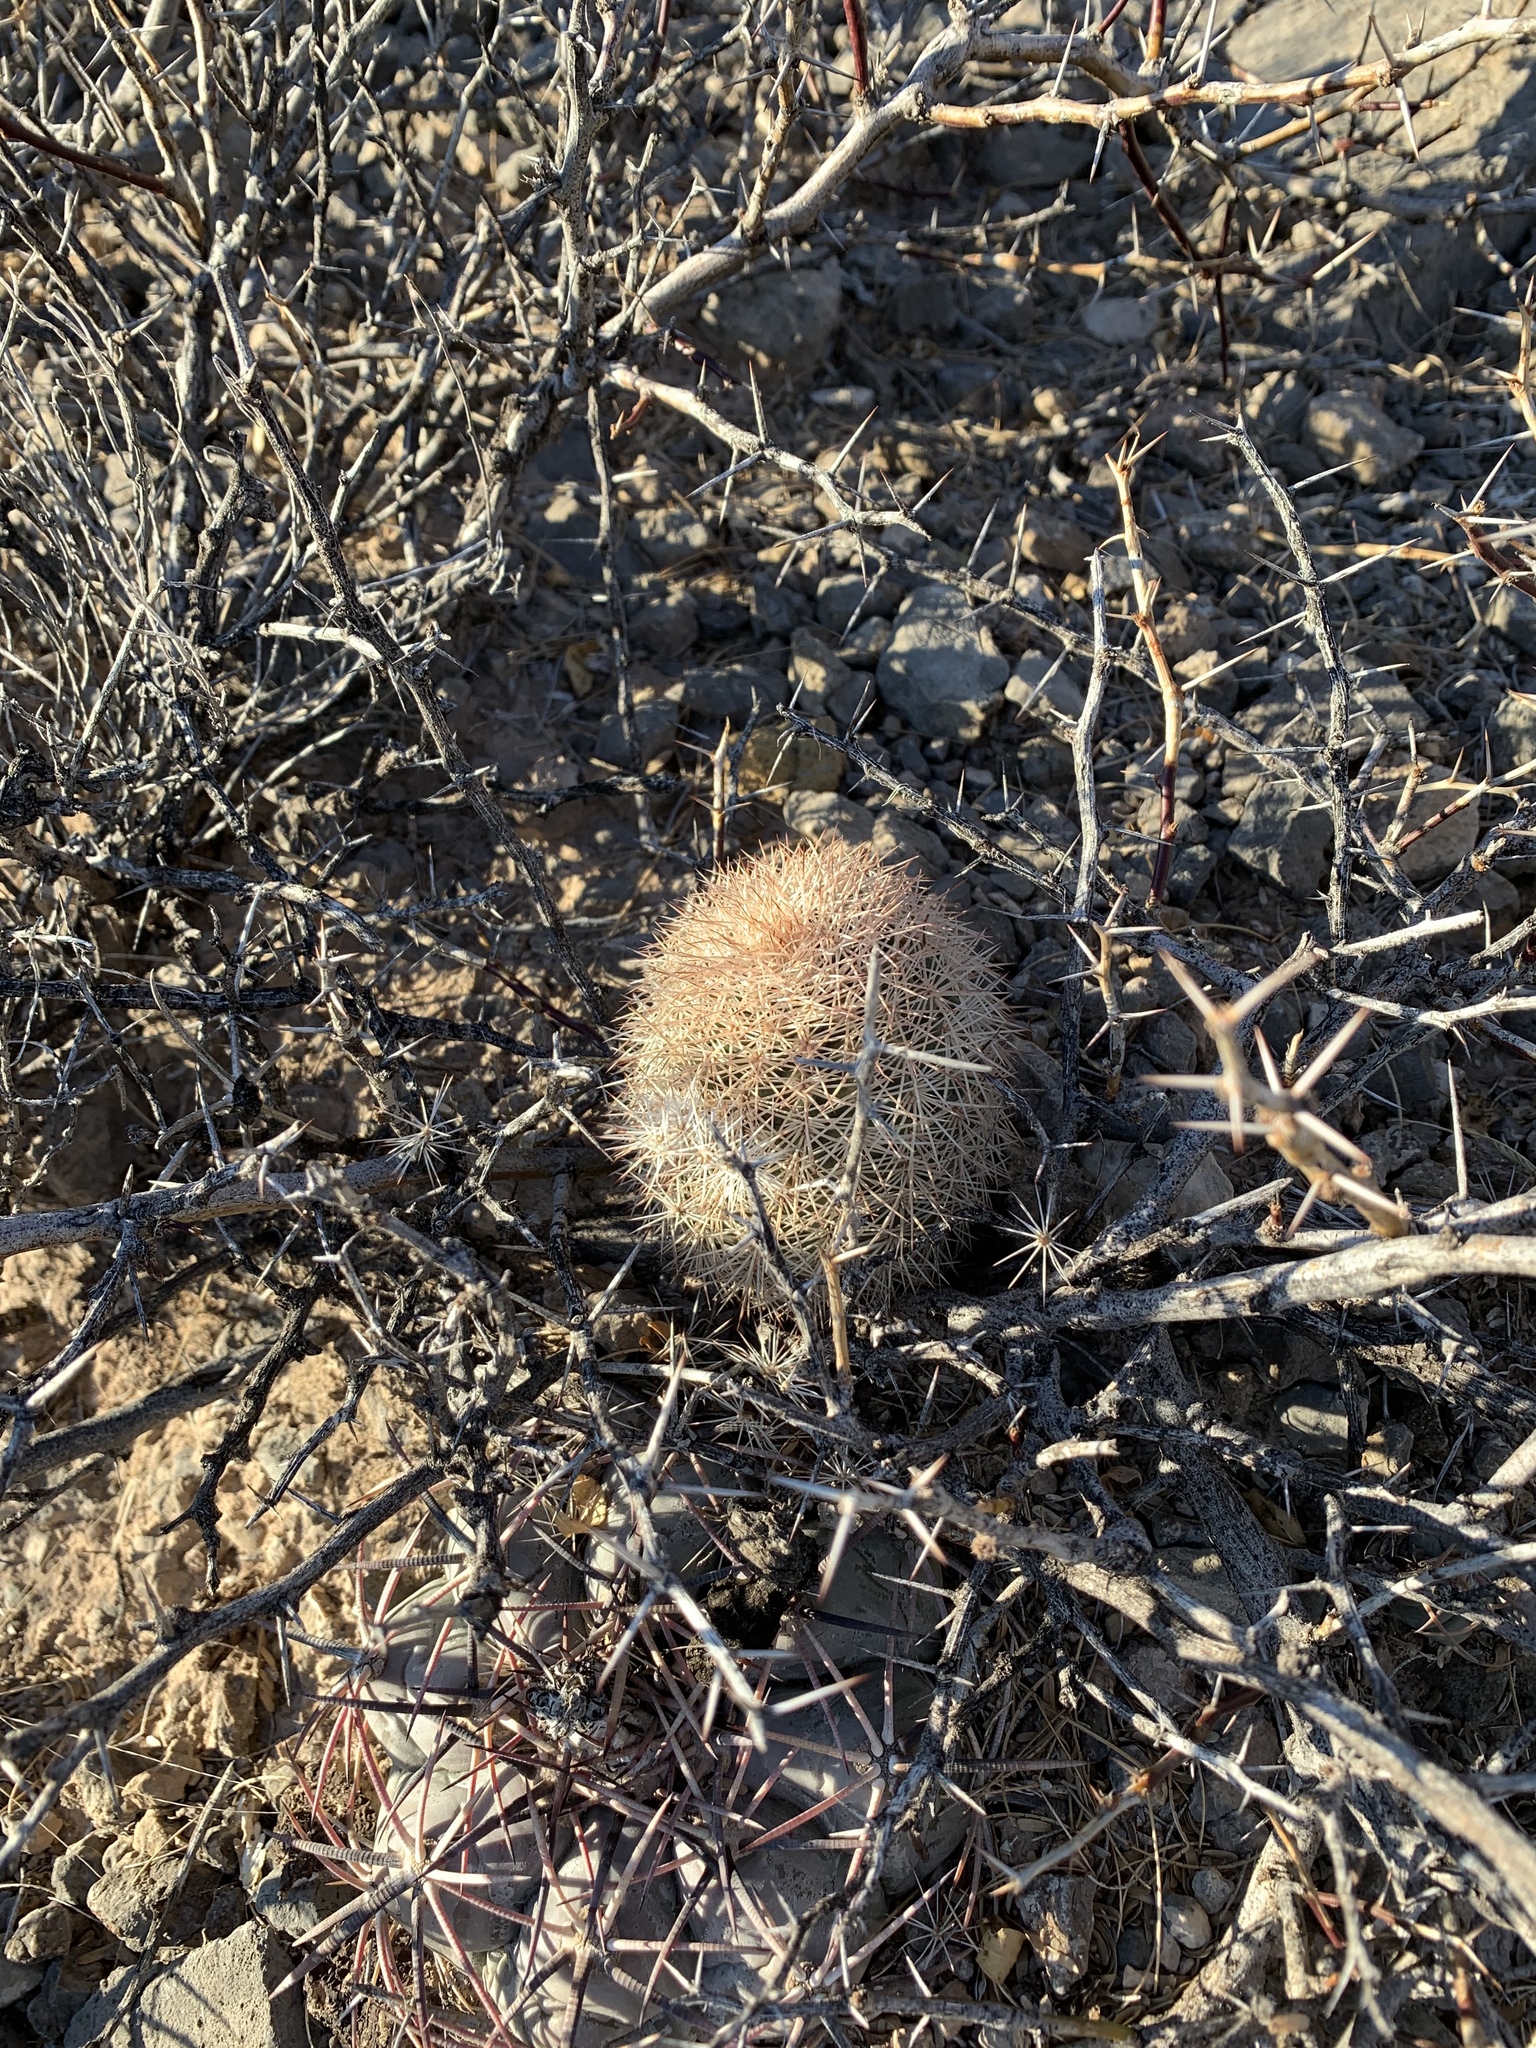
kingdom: Plantae
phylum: Tracheophyta
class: Magnoliopsida
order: Caryophyllales
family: Cactaceae
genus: Echinocereus
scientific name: Echinocereus dasyacanthus
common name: Spiny hedgehog cactus
